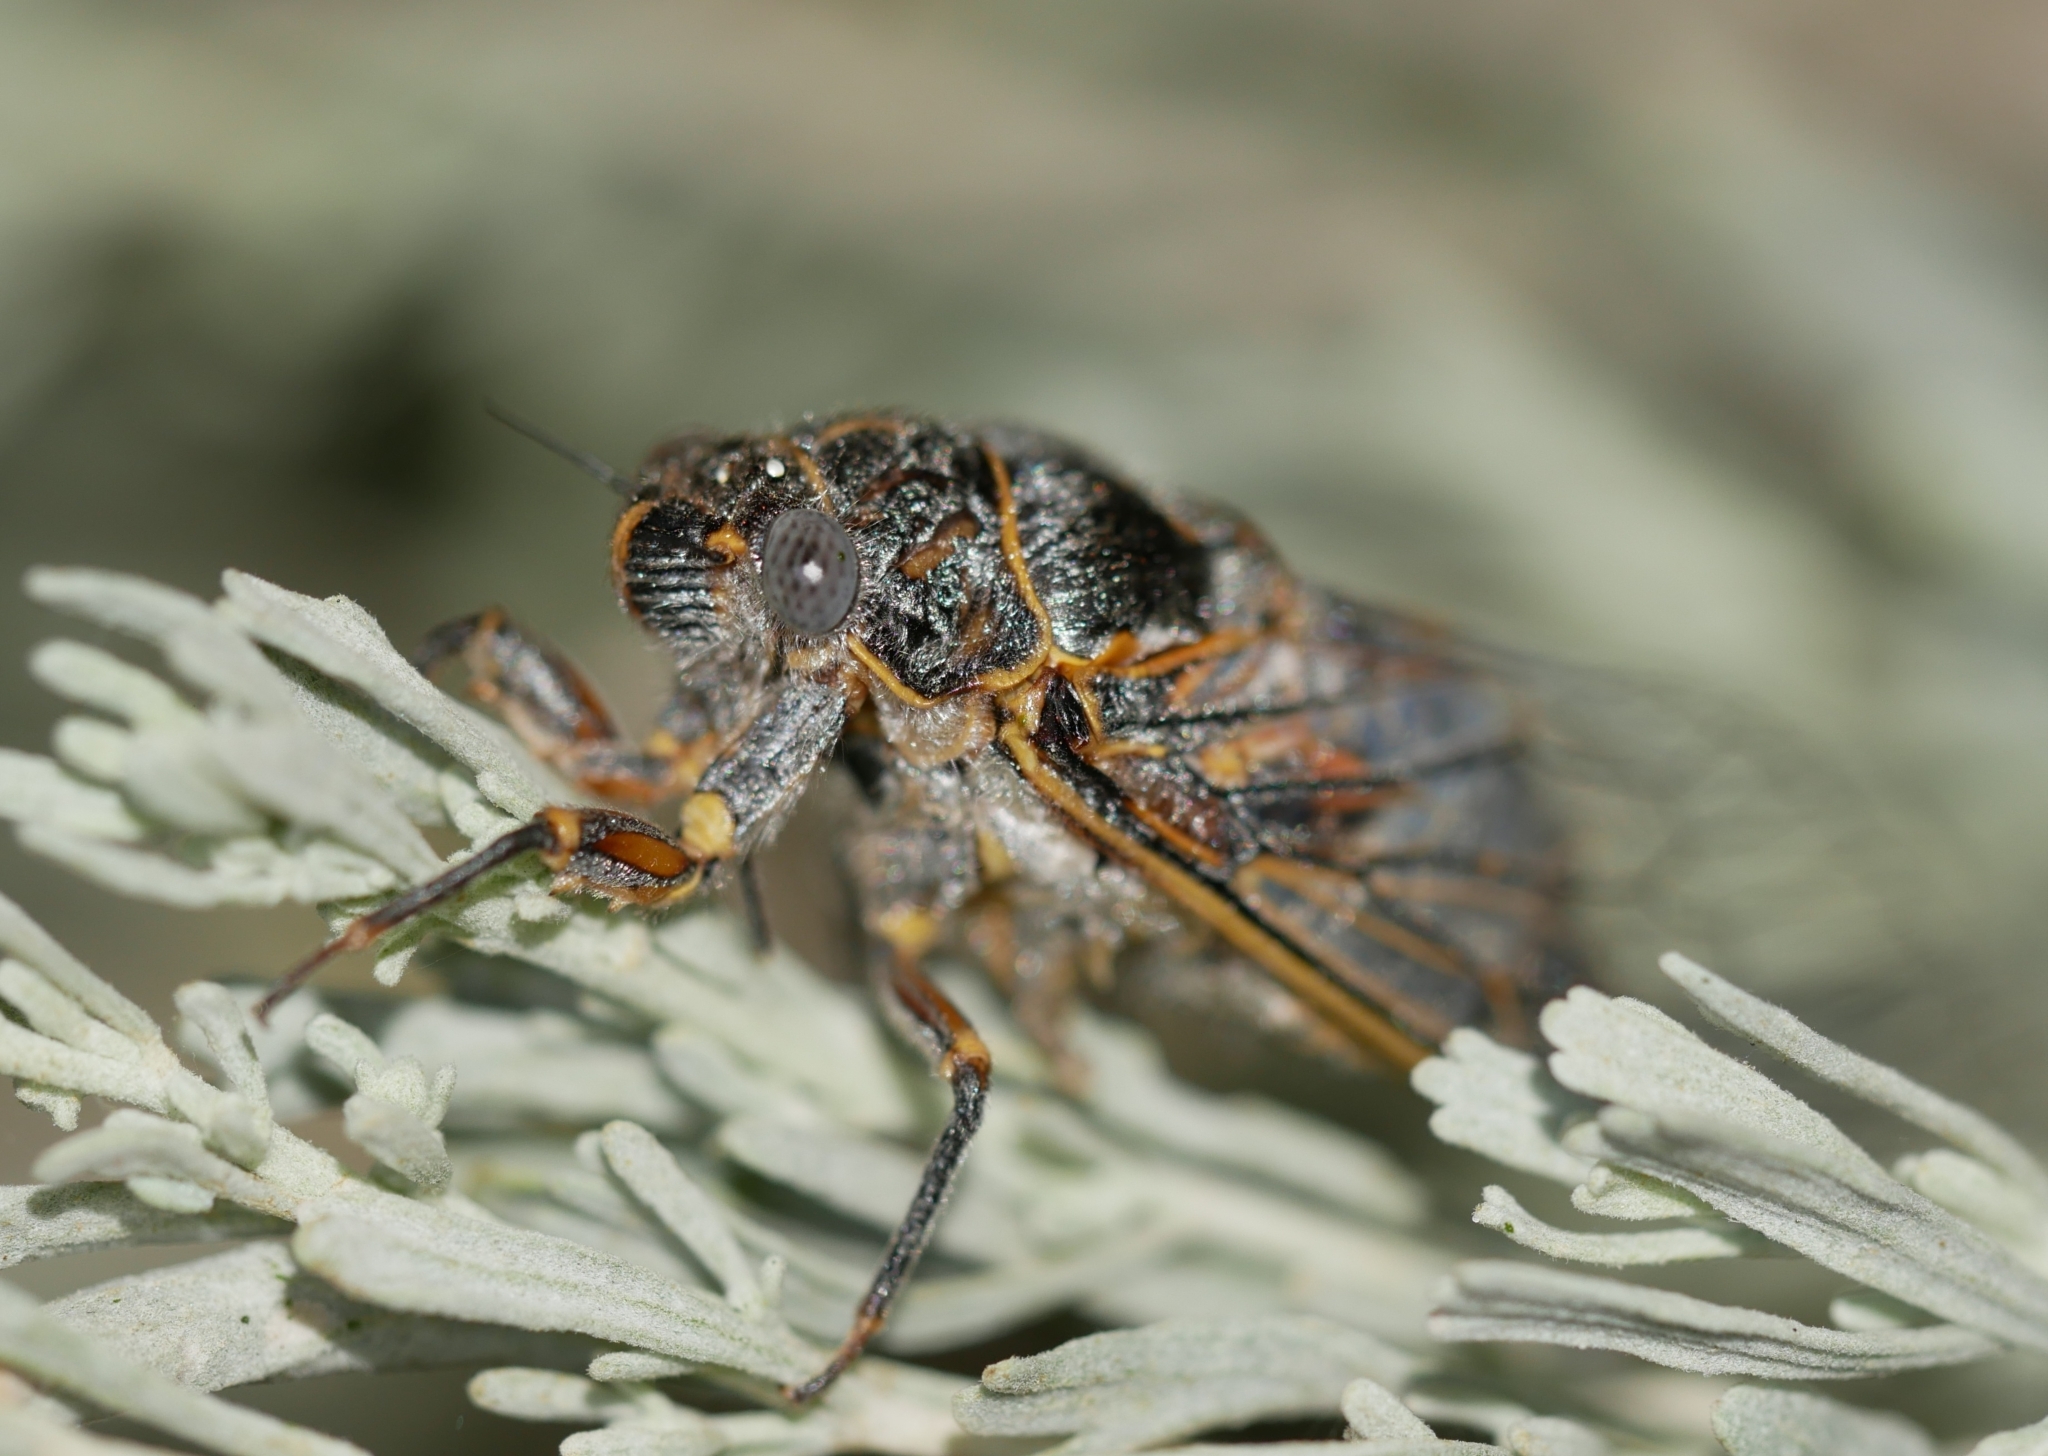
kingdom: Animalia
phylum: Arthropoda
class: Insecta
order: Hemiptera
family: Cicadidae
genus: Tibicinoides
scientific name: Tibicinoides
